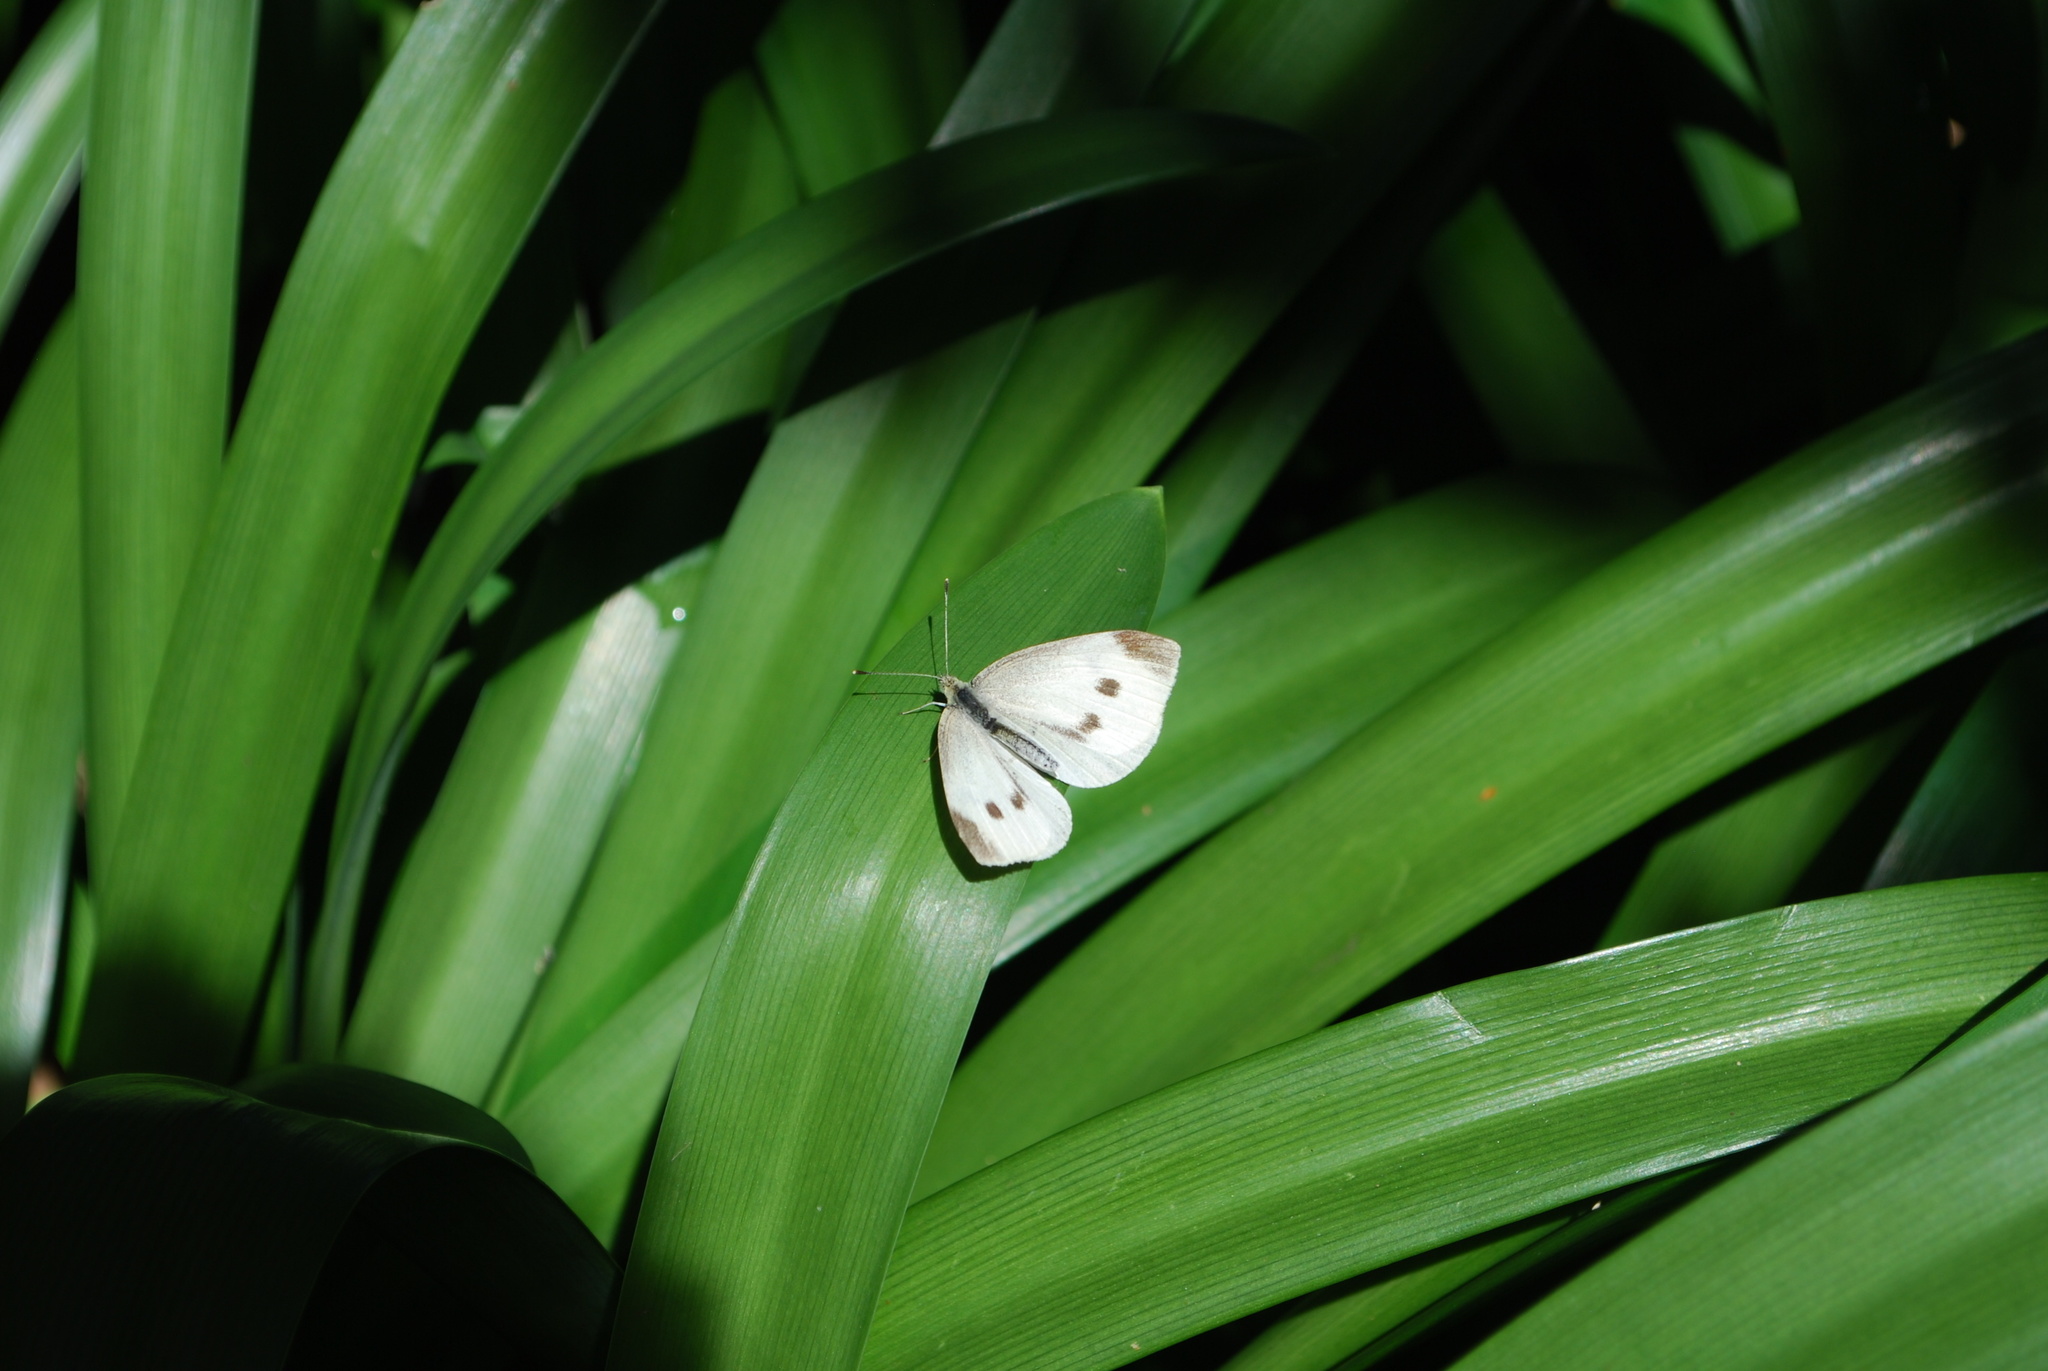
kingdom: Animalia
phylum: Arthropoda
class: Insecta
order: Lepidoptera
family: Pieridae
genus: Pieris
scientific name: Pieris rapae
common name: Small white
